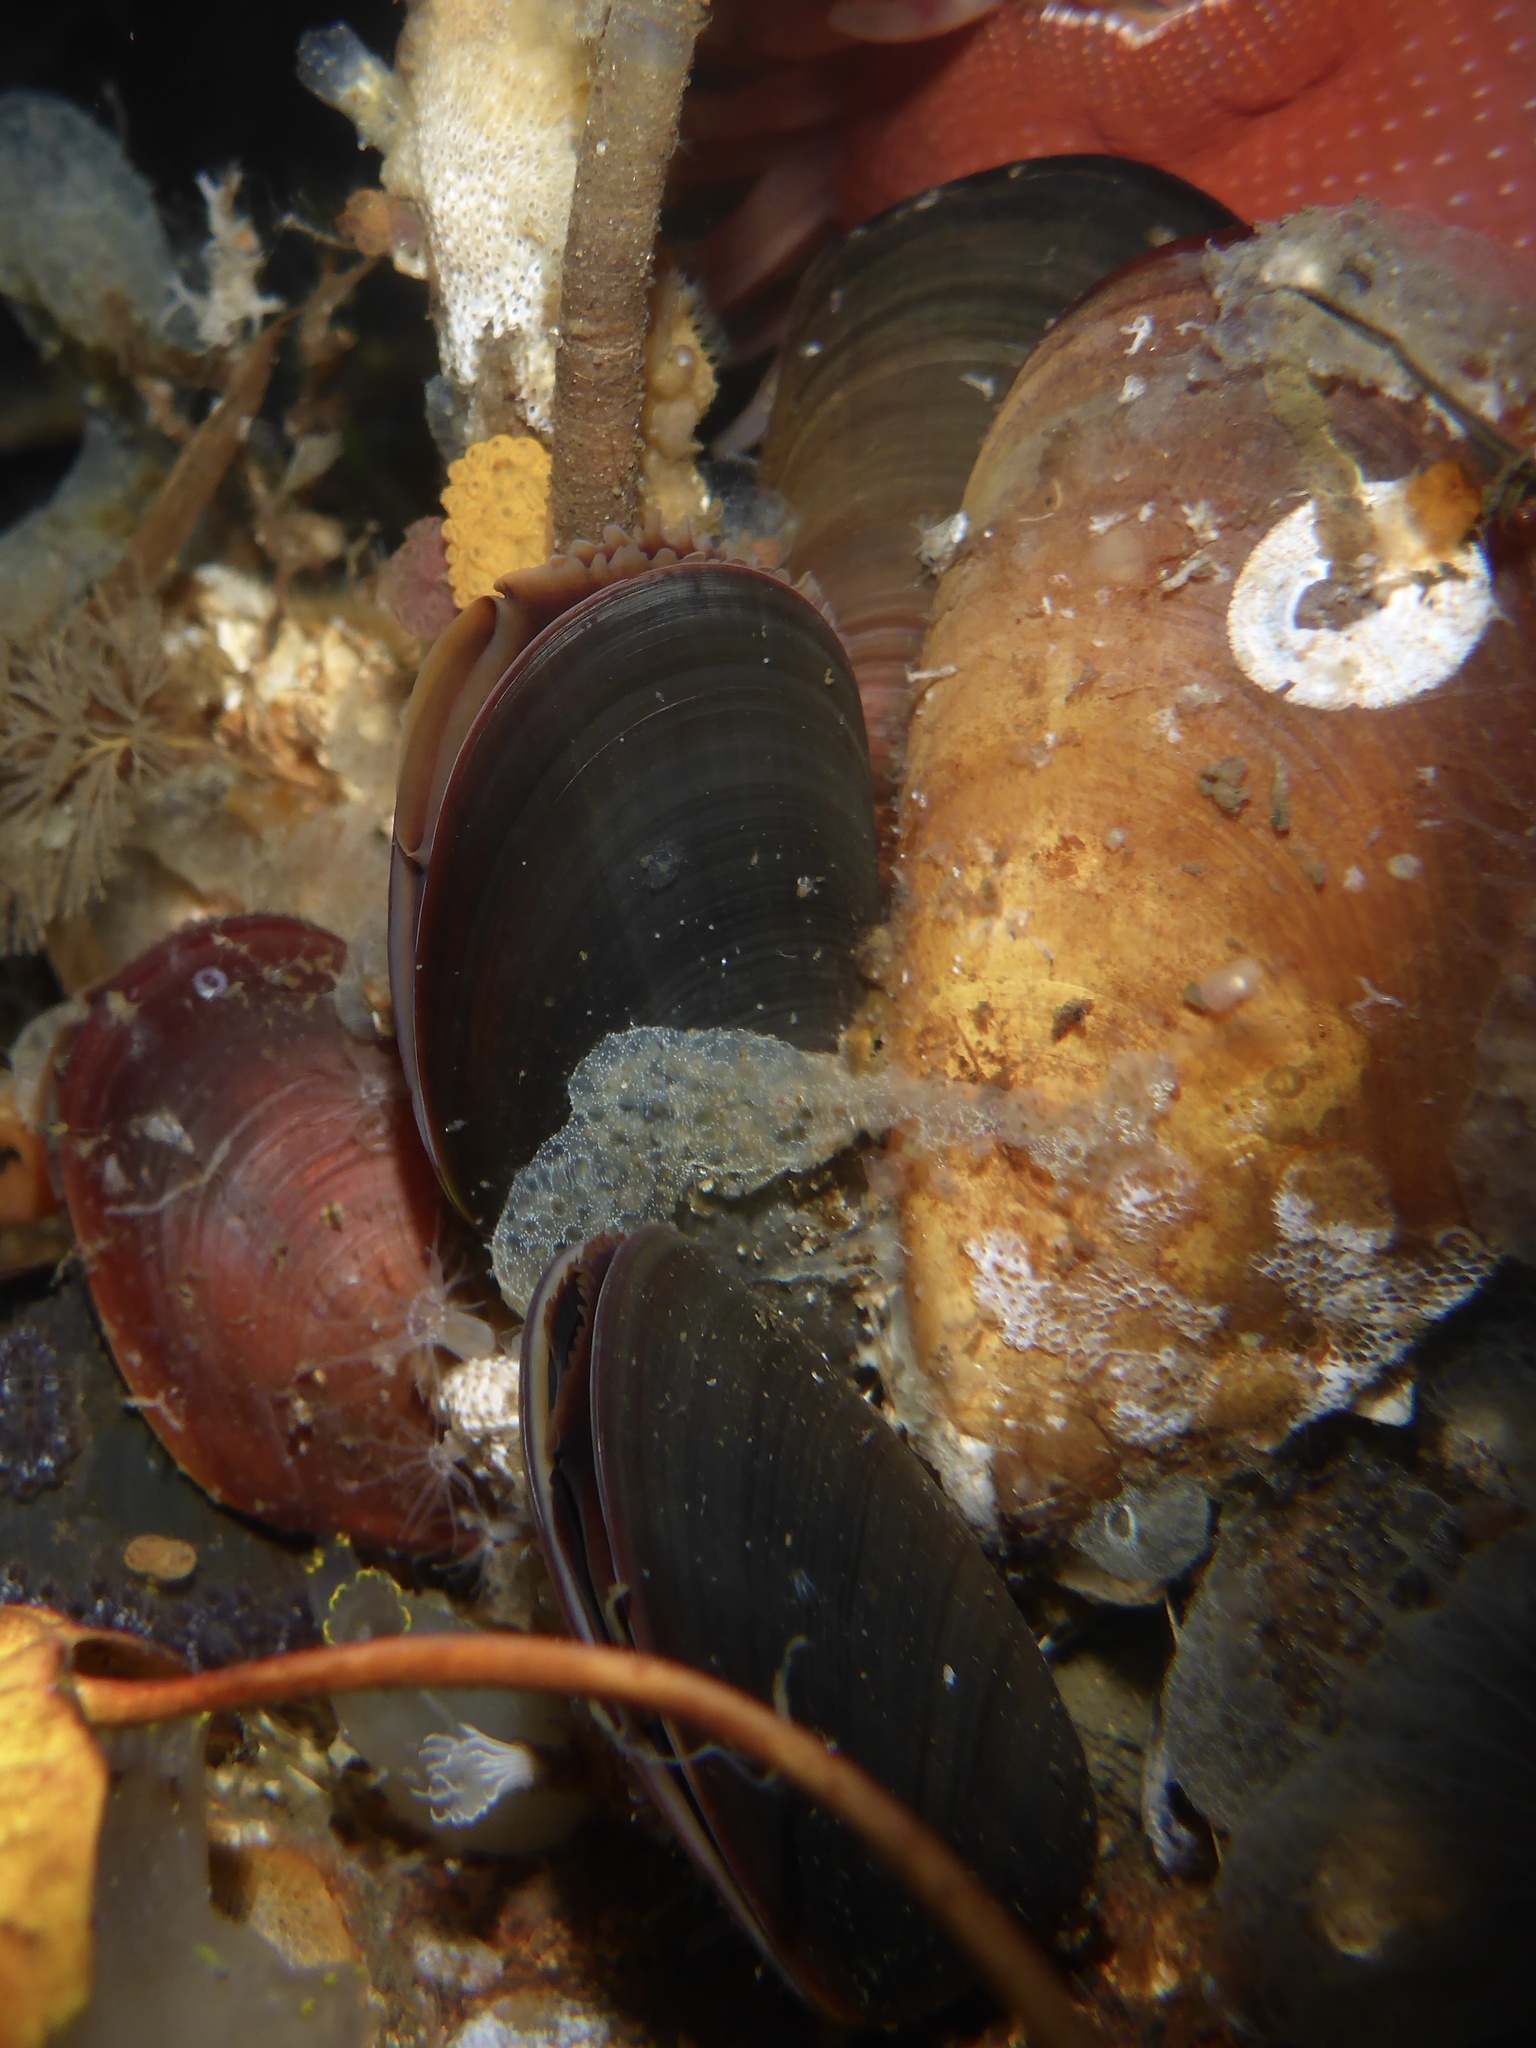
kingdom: Animalia
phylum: Mollusca
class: Bivalvia
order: Mytilida
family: Mytilidae
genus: Mytilus
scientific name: Mytilus
